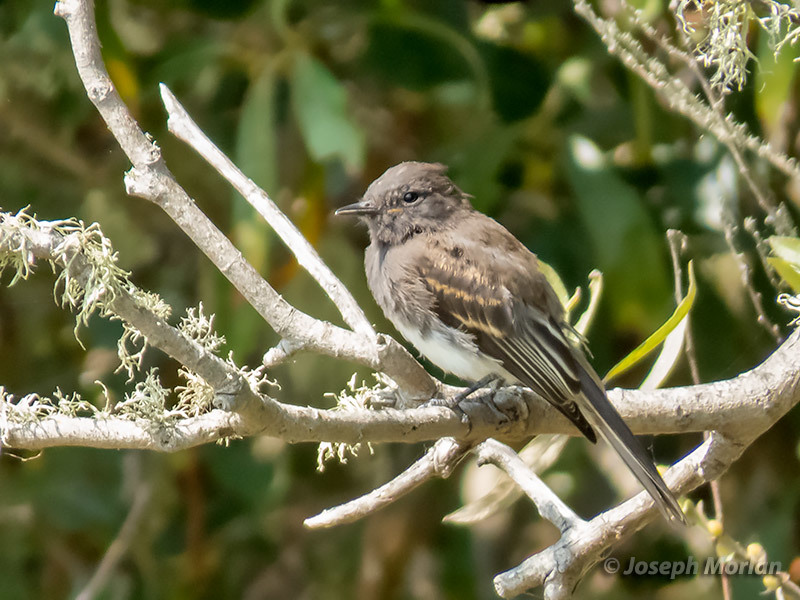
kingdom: Animalia
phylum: Chordata
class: Aves
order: Passeriformes
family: Tyrannidae
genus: Sayornis
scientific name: Sayornis nigricans
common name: Black phoebe
